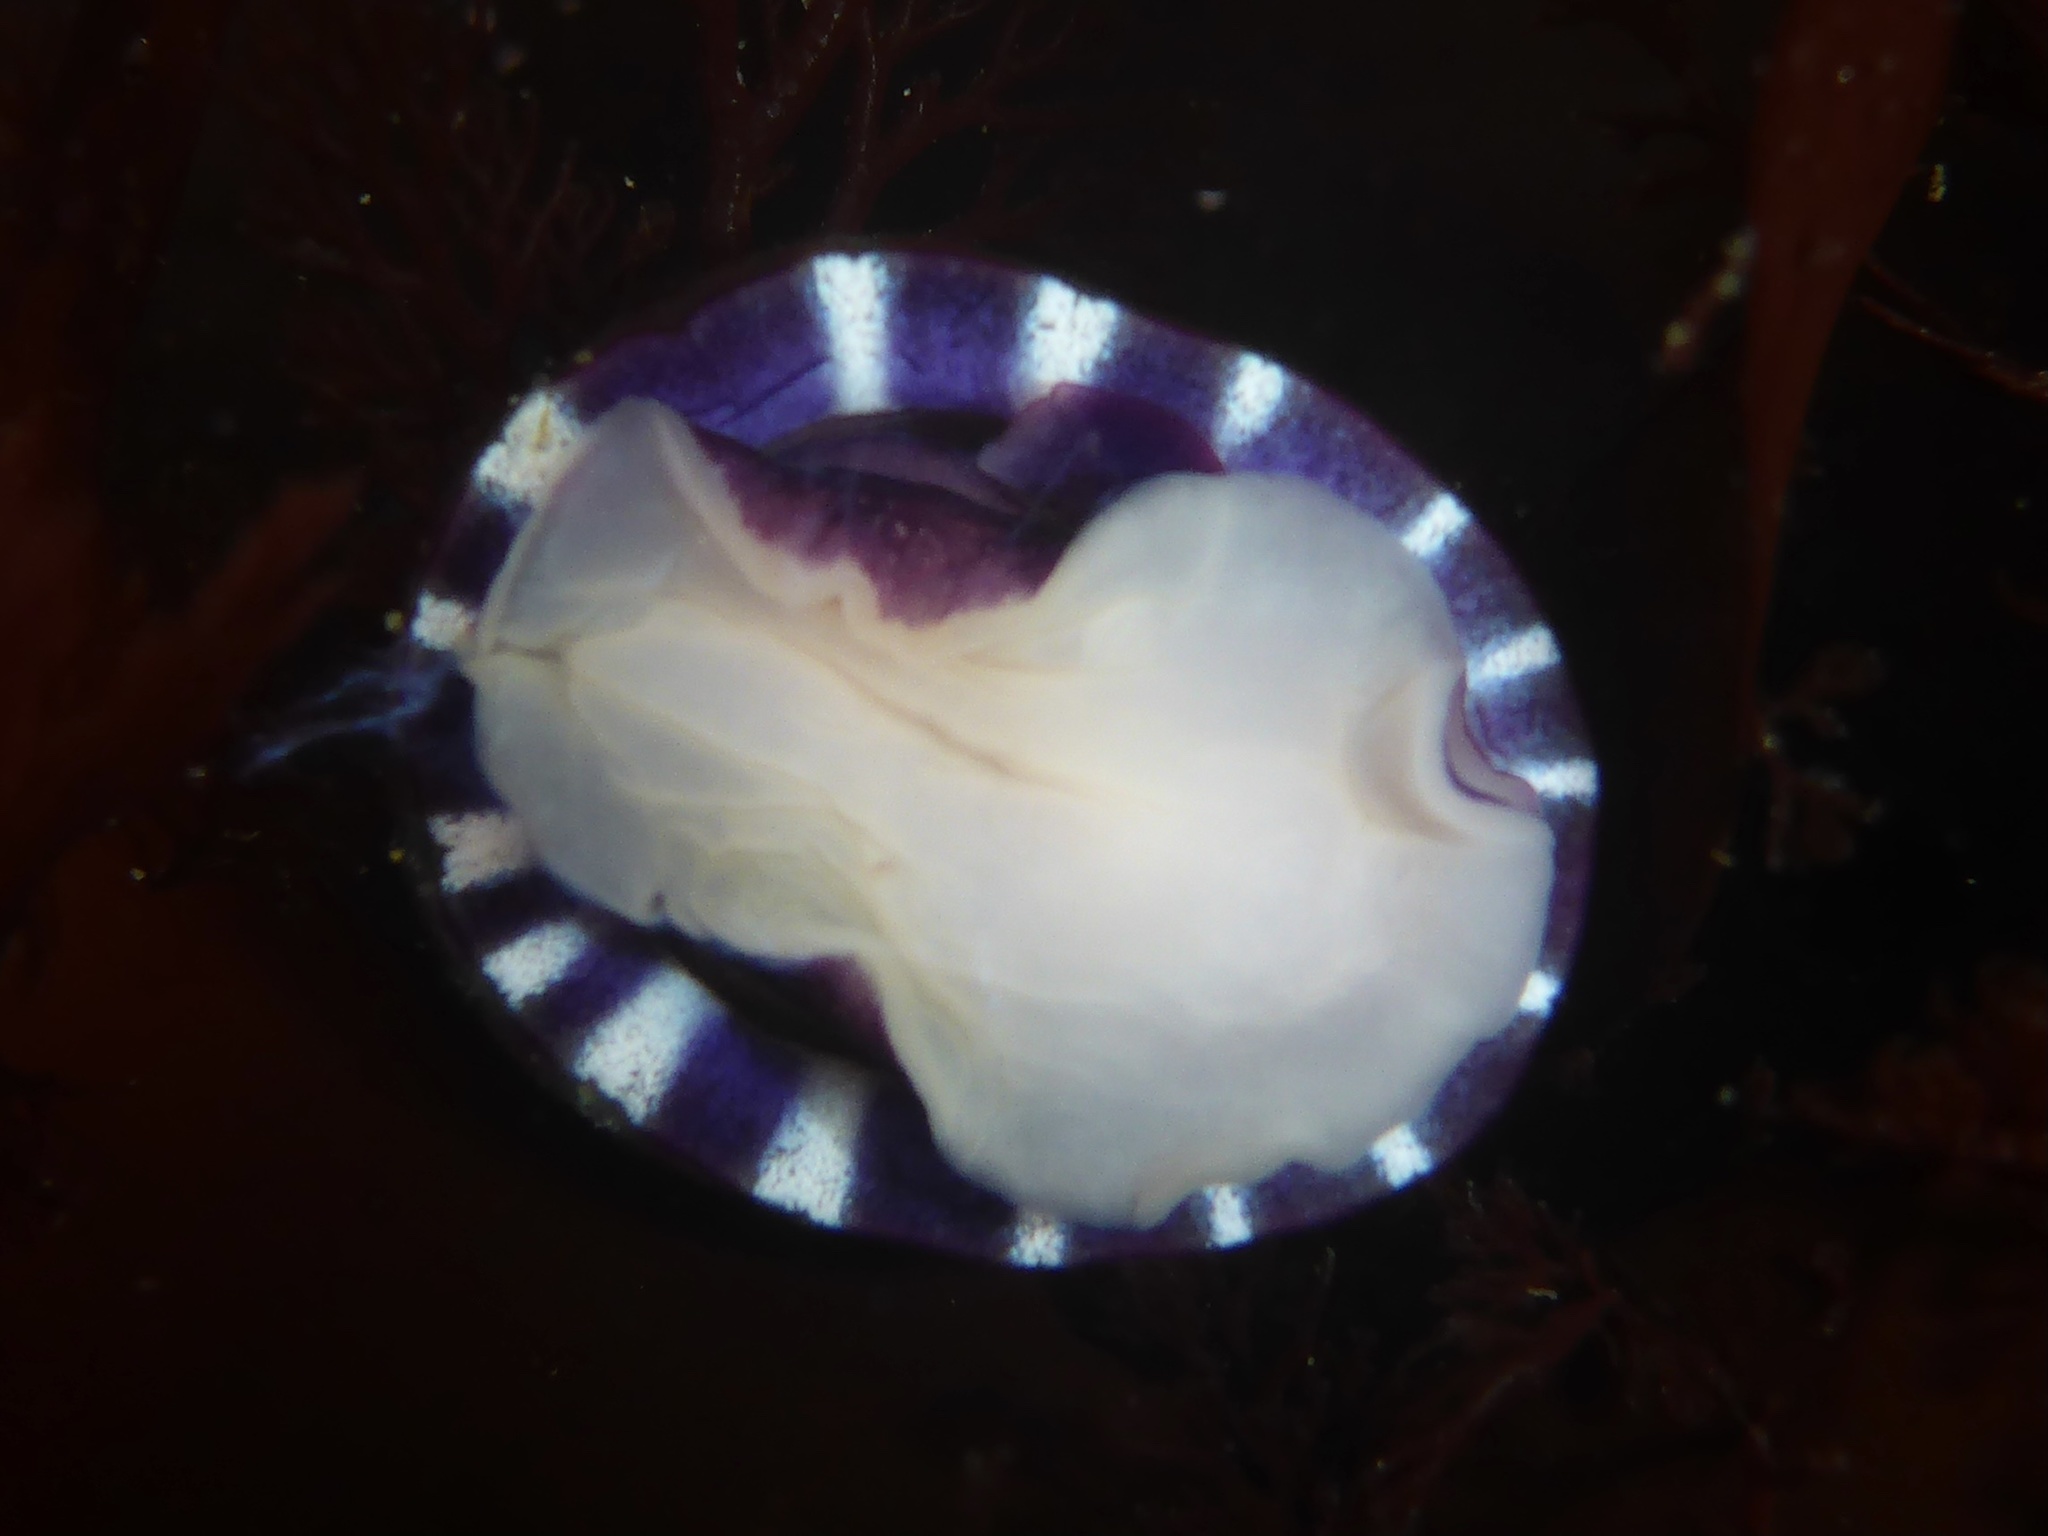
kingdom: Animalia
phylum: Mollusca
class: Gastropoda
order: Siphonariida
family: Siphonariidae
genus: Williamia
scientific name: Williamia peltoides
